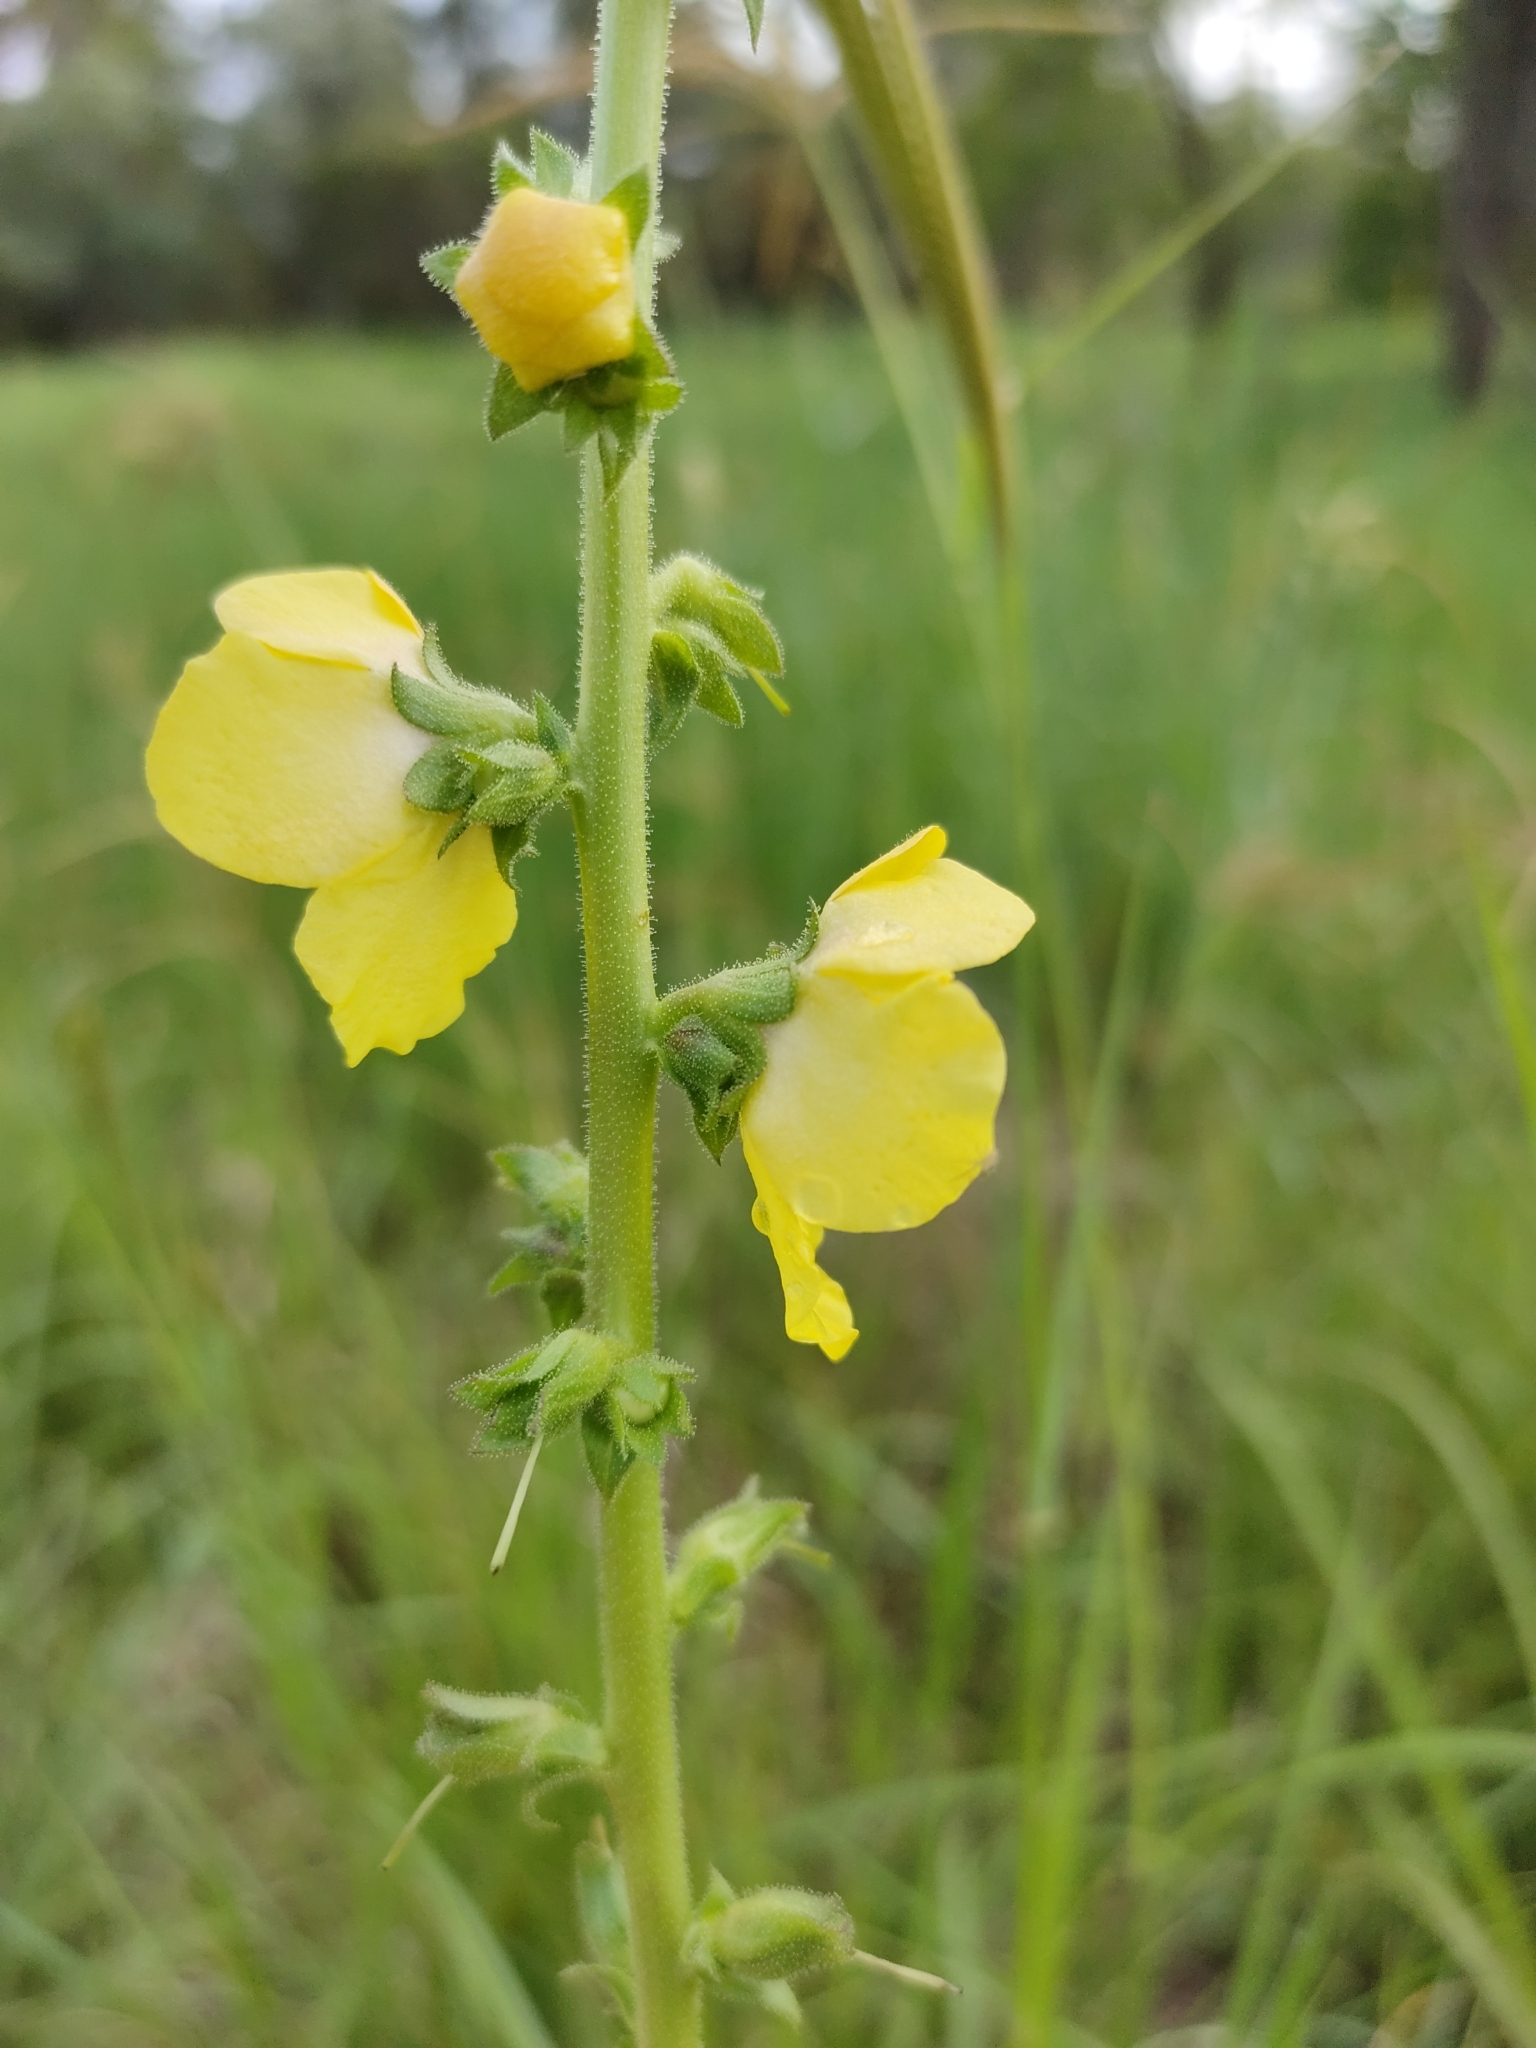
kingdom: Plantae
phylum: Tracheophyta
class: Magnoliopsida
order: Lamiales
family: Scrophulariaceae
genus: Verbascum
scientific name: Verbascum virgatum
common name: Twiggy mullein
